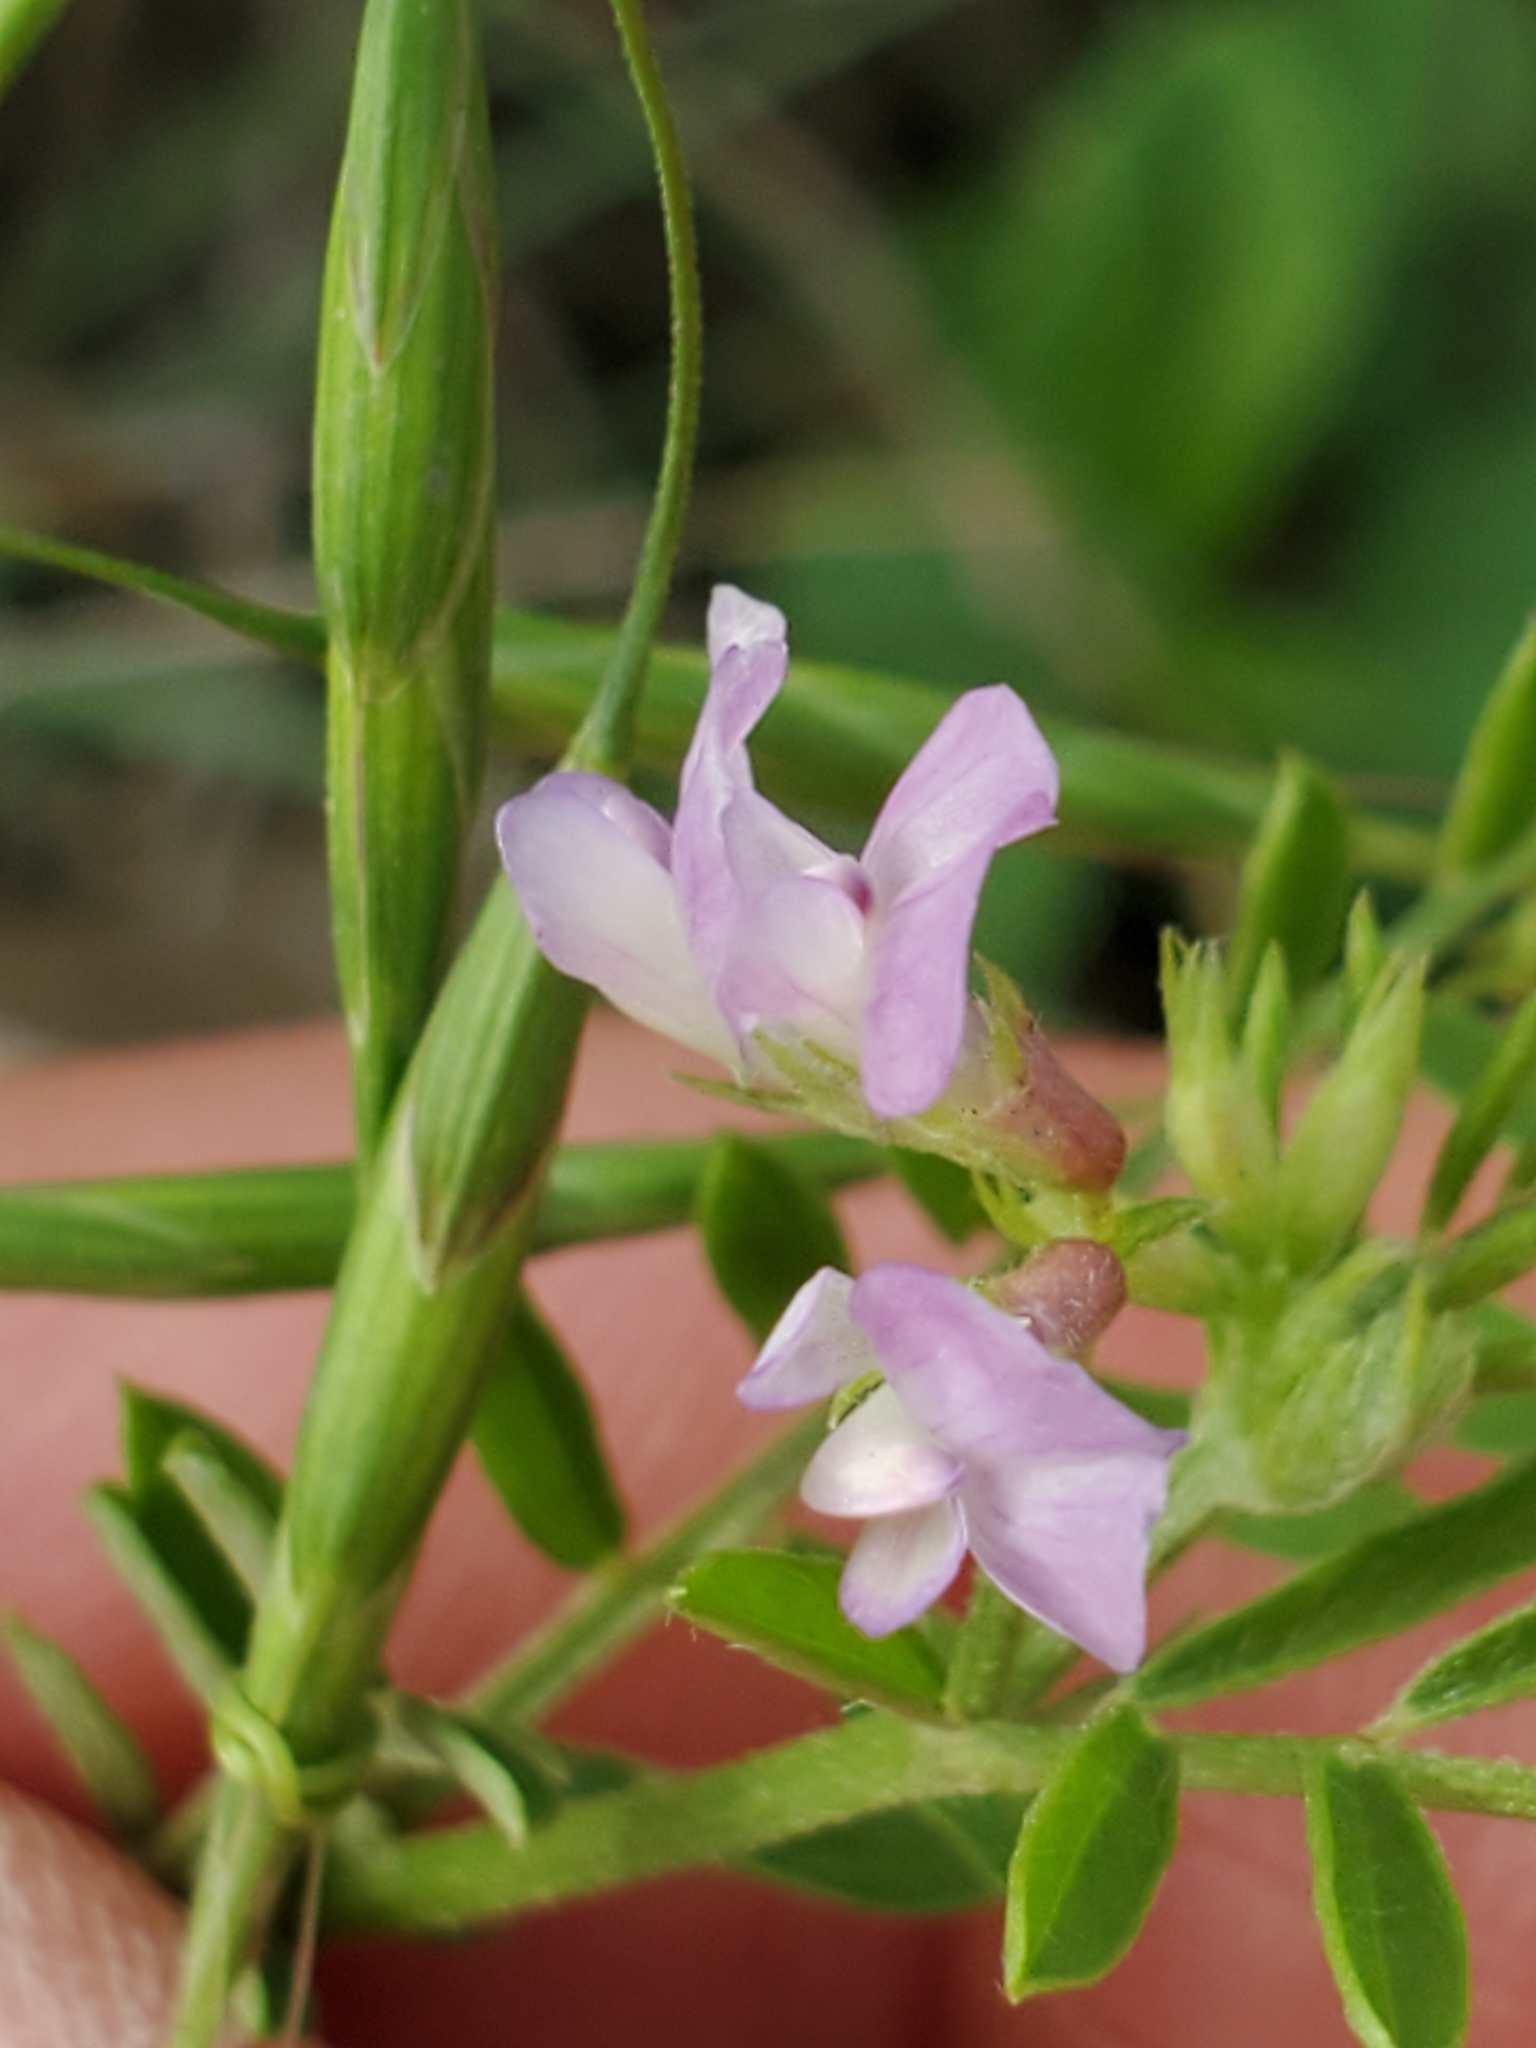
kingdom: Plantae
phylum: Tracheophyta
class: Magnoliopsida
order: Fabales
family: Fabaceae
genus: Vicia
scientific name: Vicia ludoviciana
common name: Louisiana vetch
